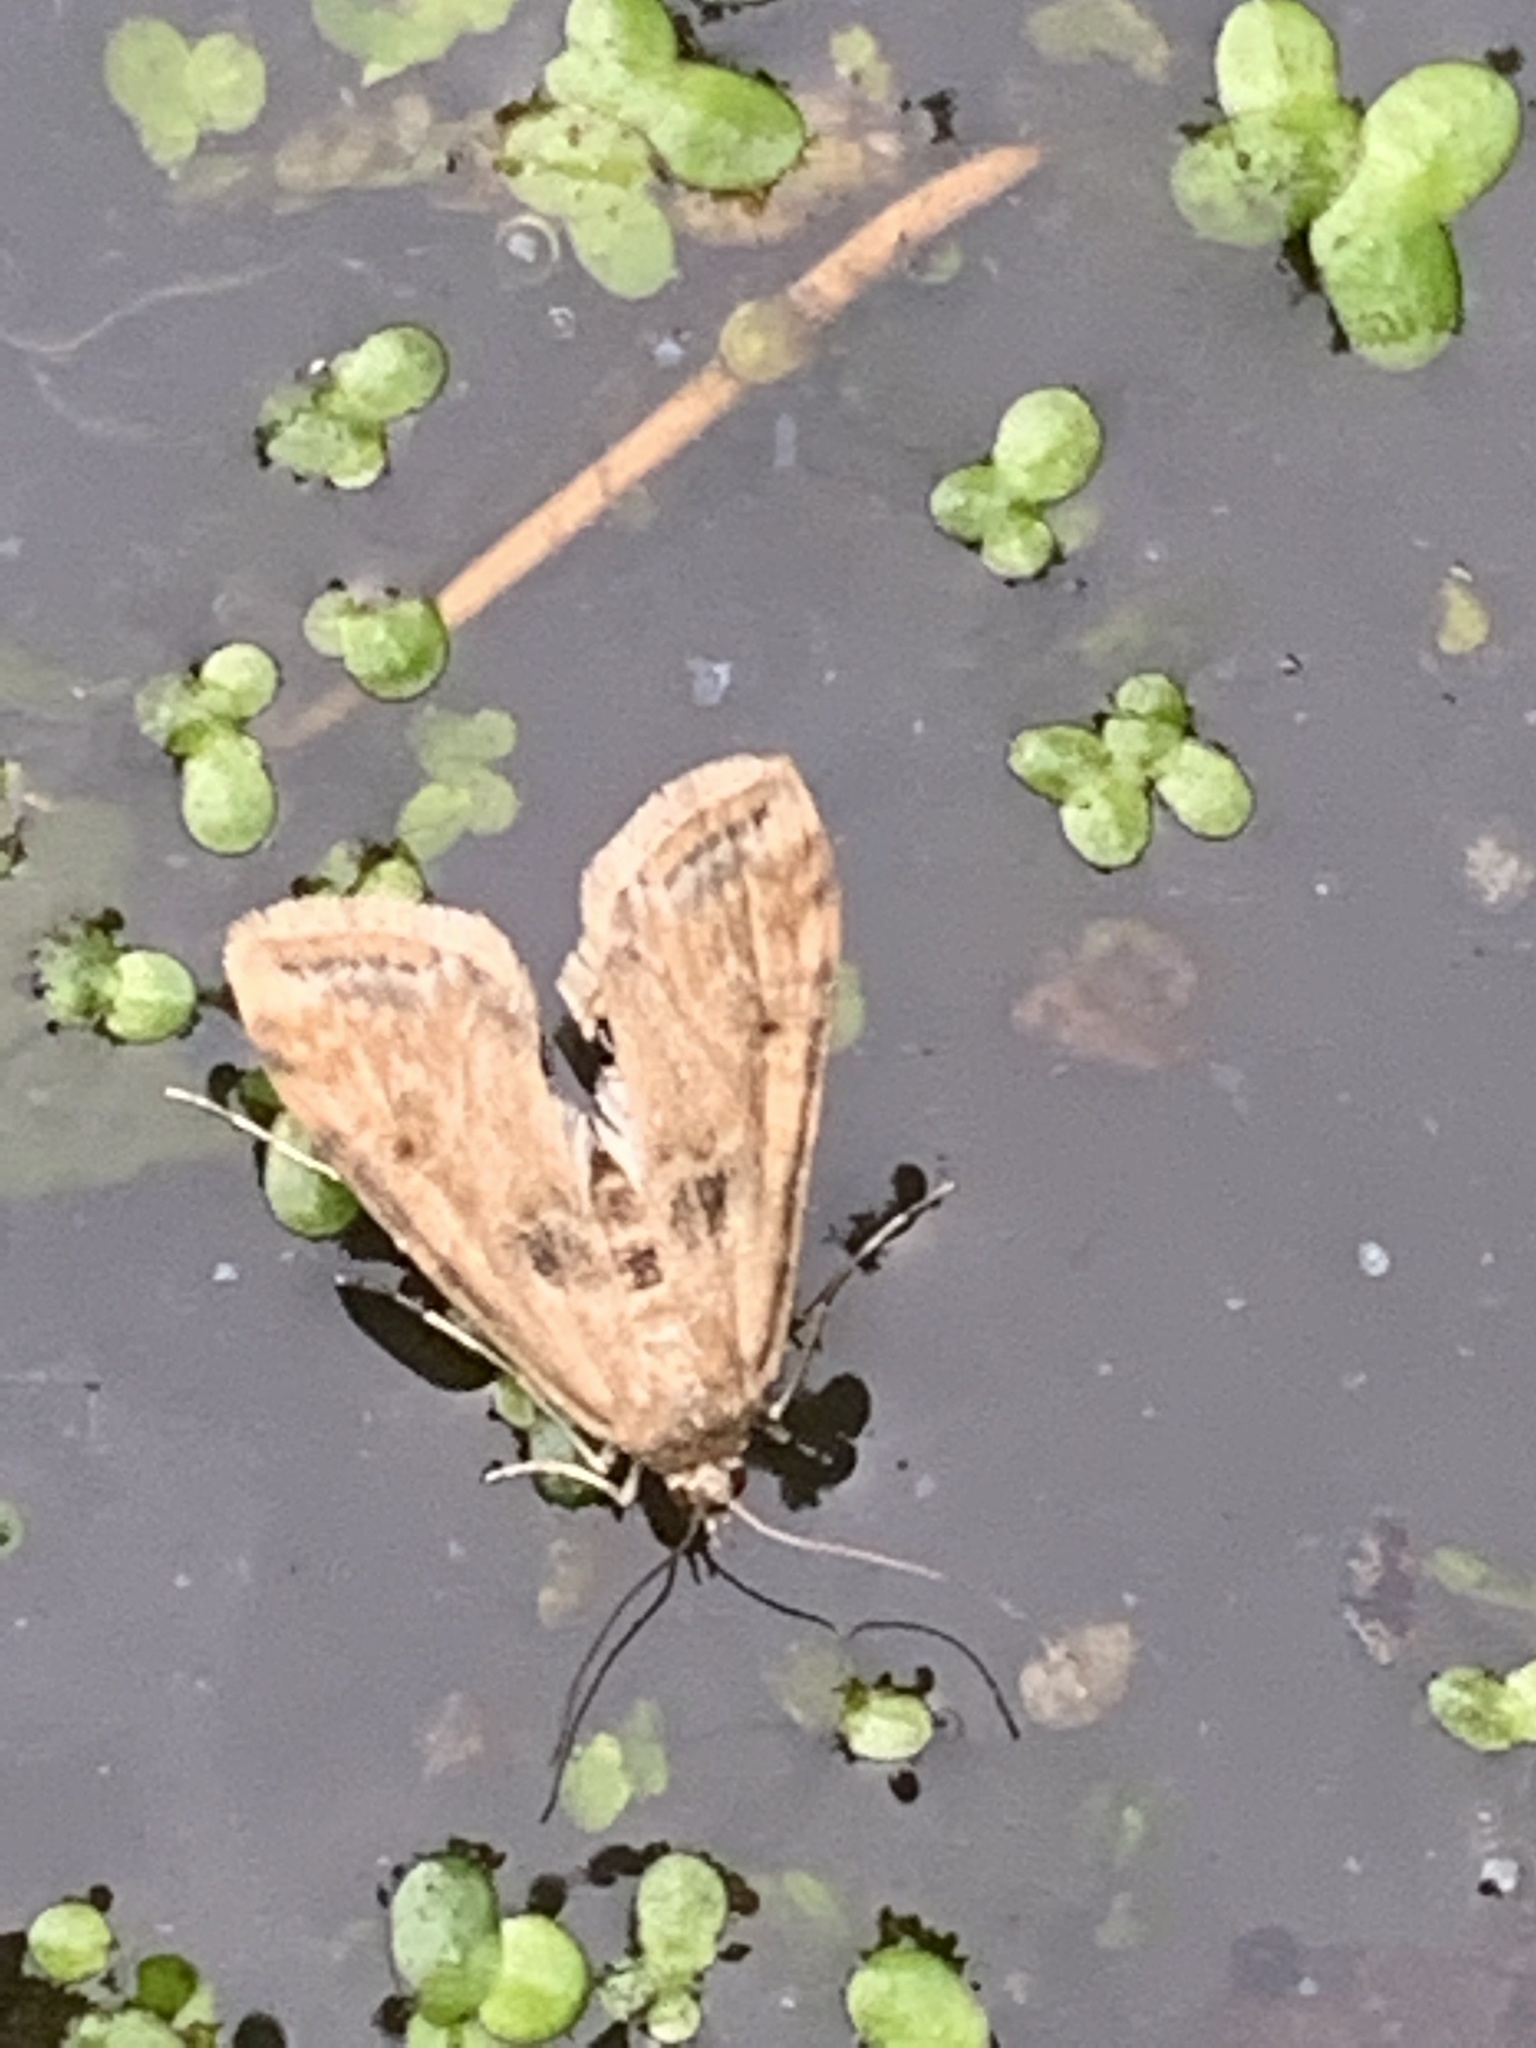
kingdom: Animalia
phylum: Arthropoda
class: Insecta
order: Lepidoptera
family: Crambidae
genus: Cataclysta
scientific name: Cataclysta lemnata
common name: Small china-mark
